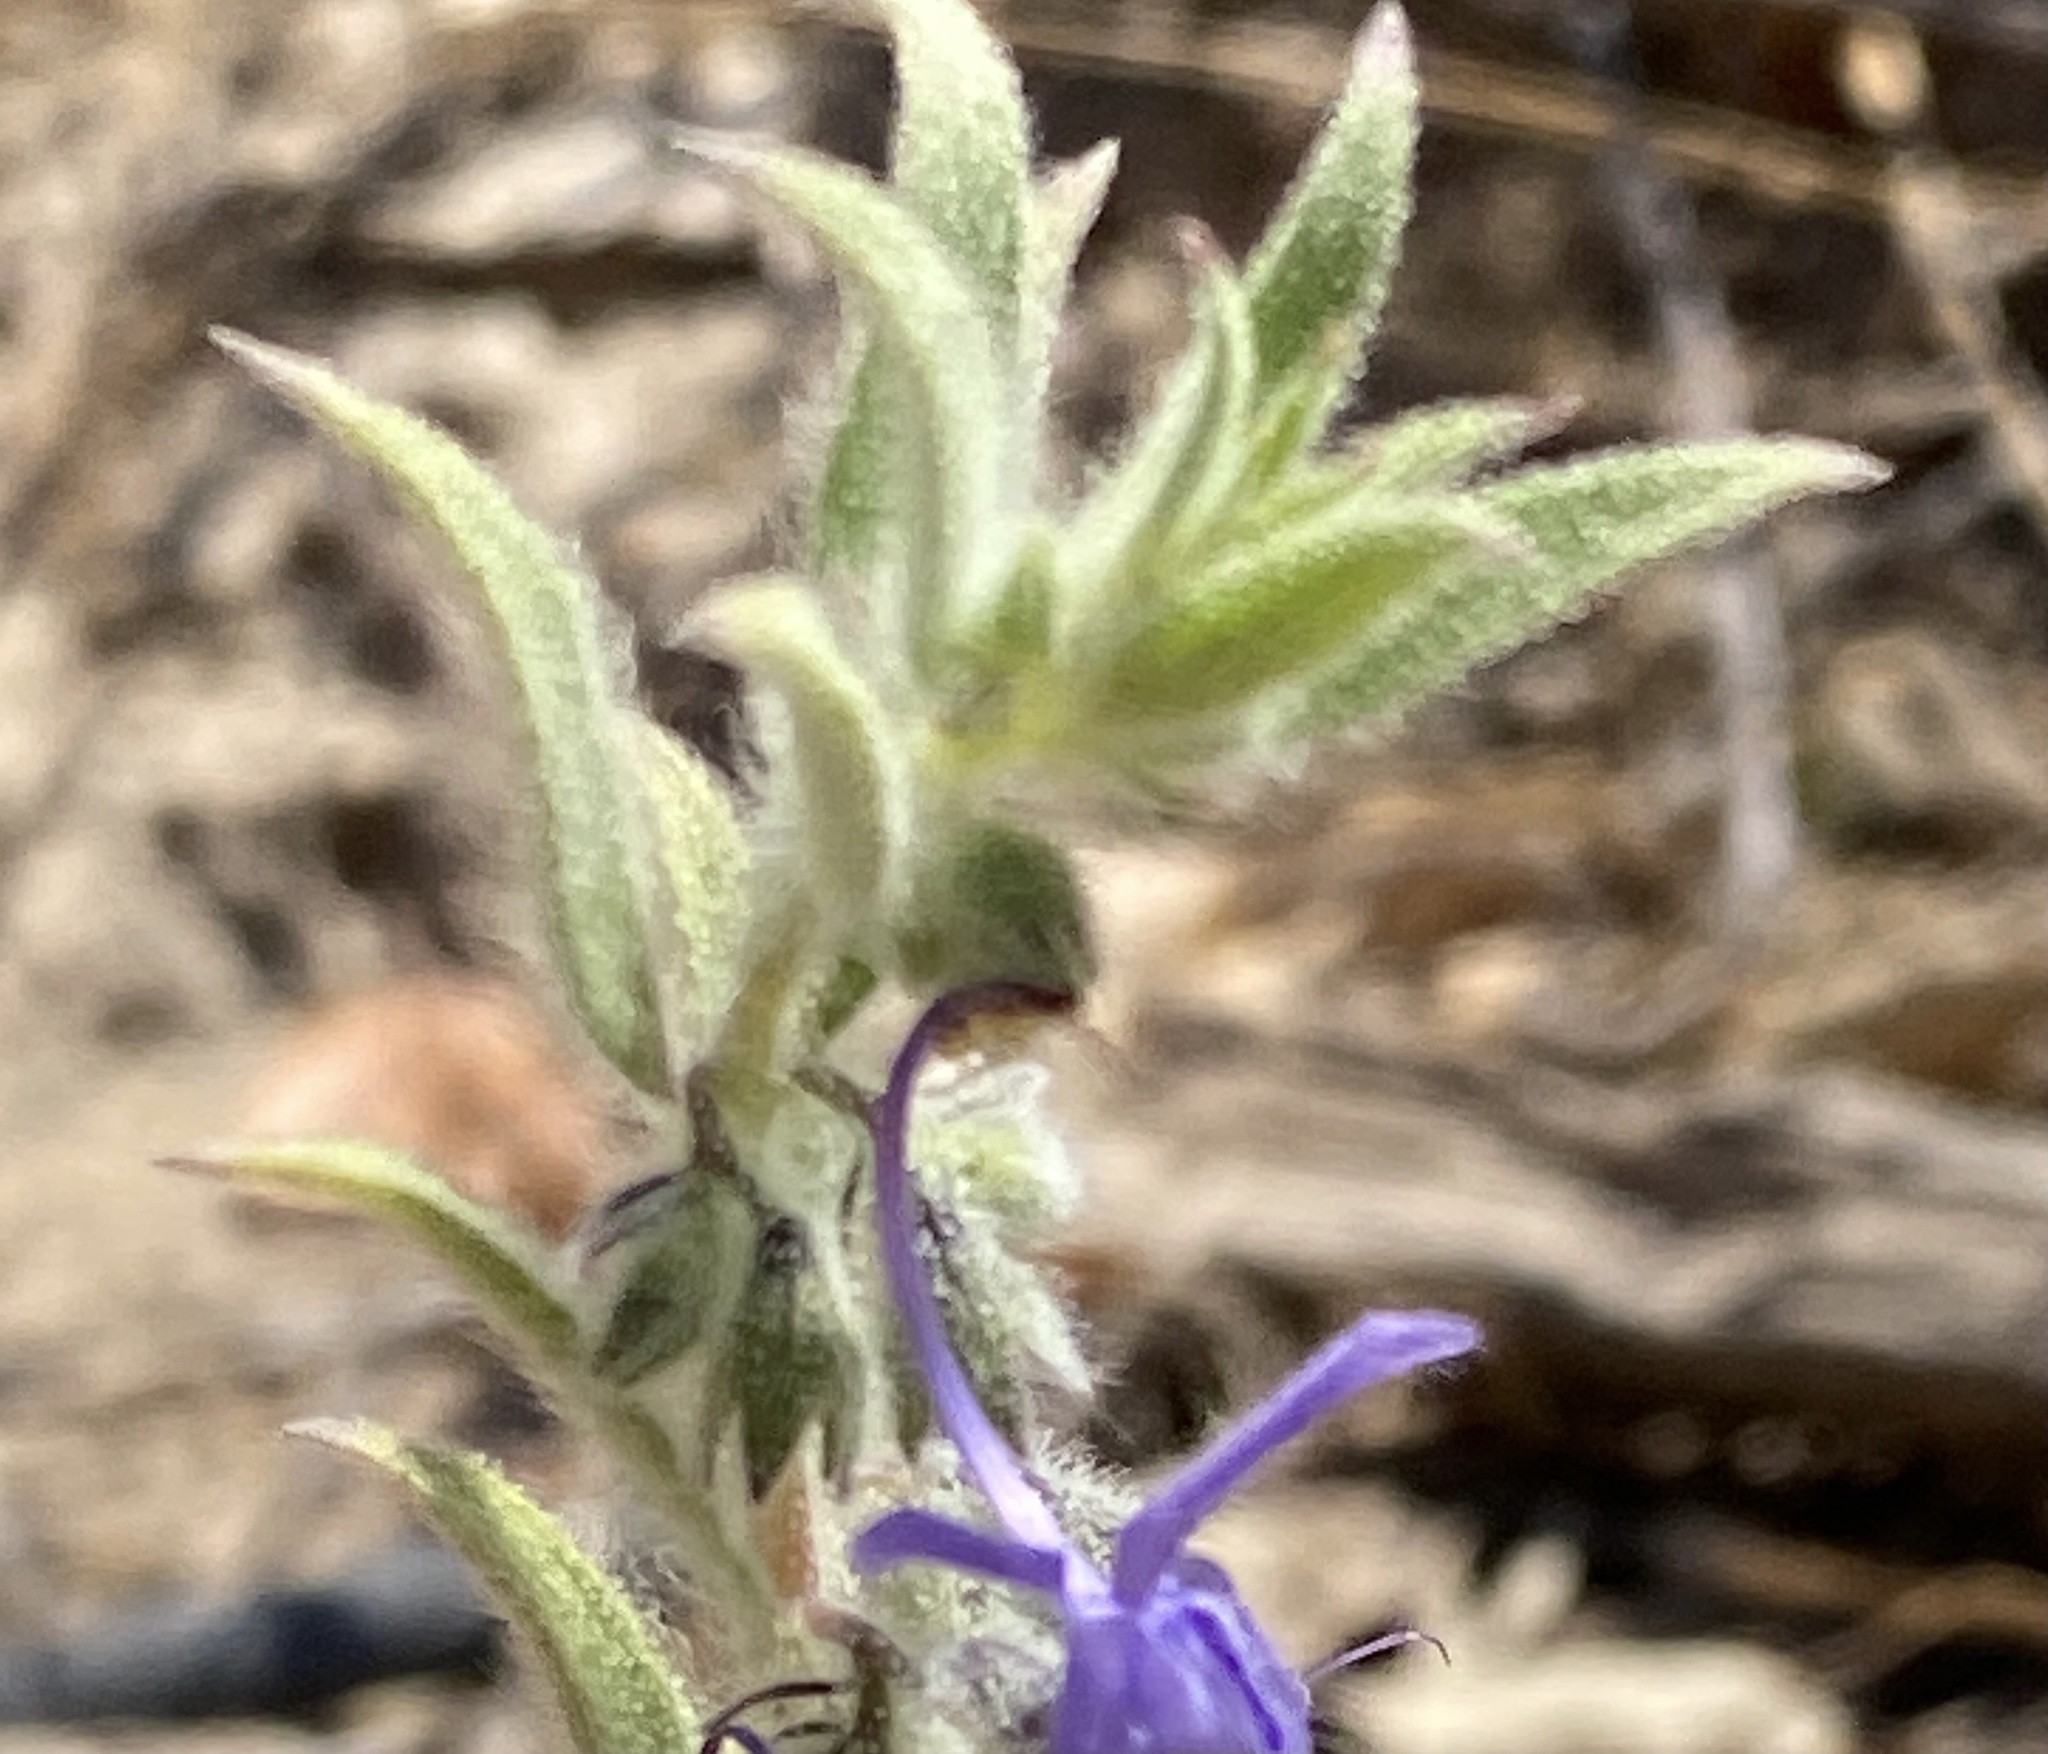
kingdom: Plantae
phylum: Tracheophyta
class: Magnoliopsida
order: Lamiales
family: Lamiaceae
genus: Trichostema
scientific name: Trichostema lanceolatum
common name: Vinegar-weed
